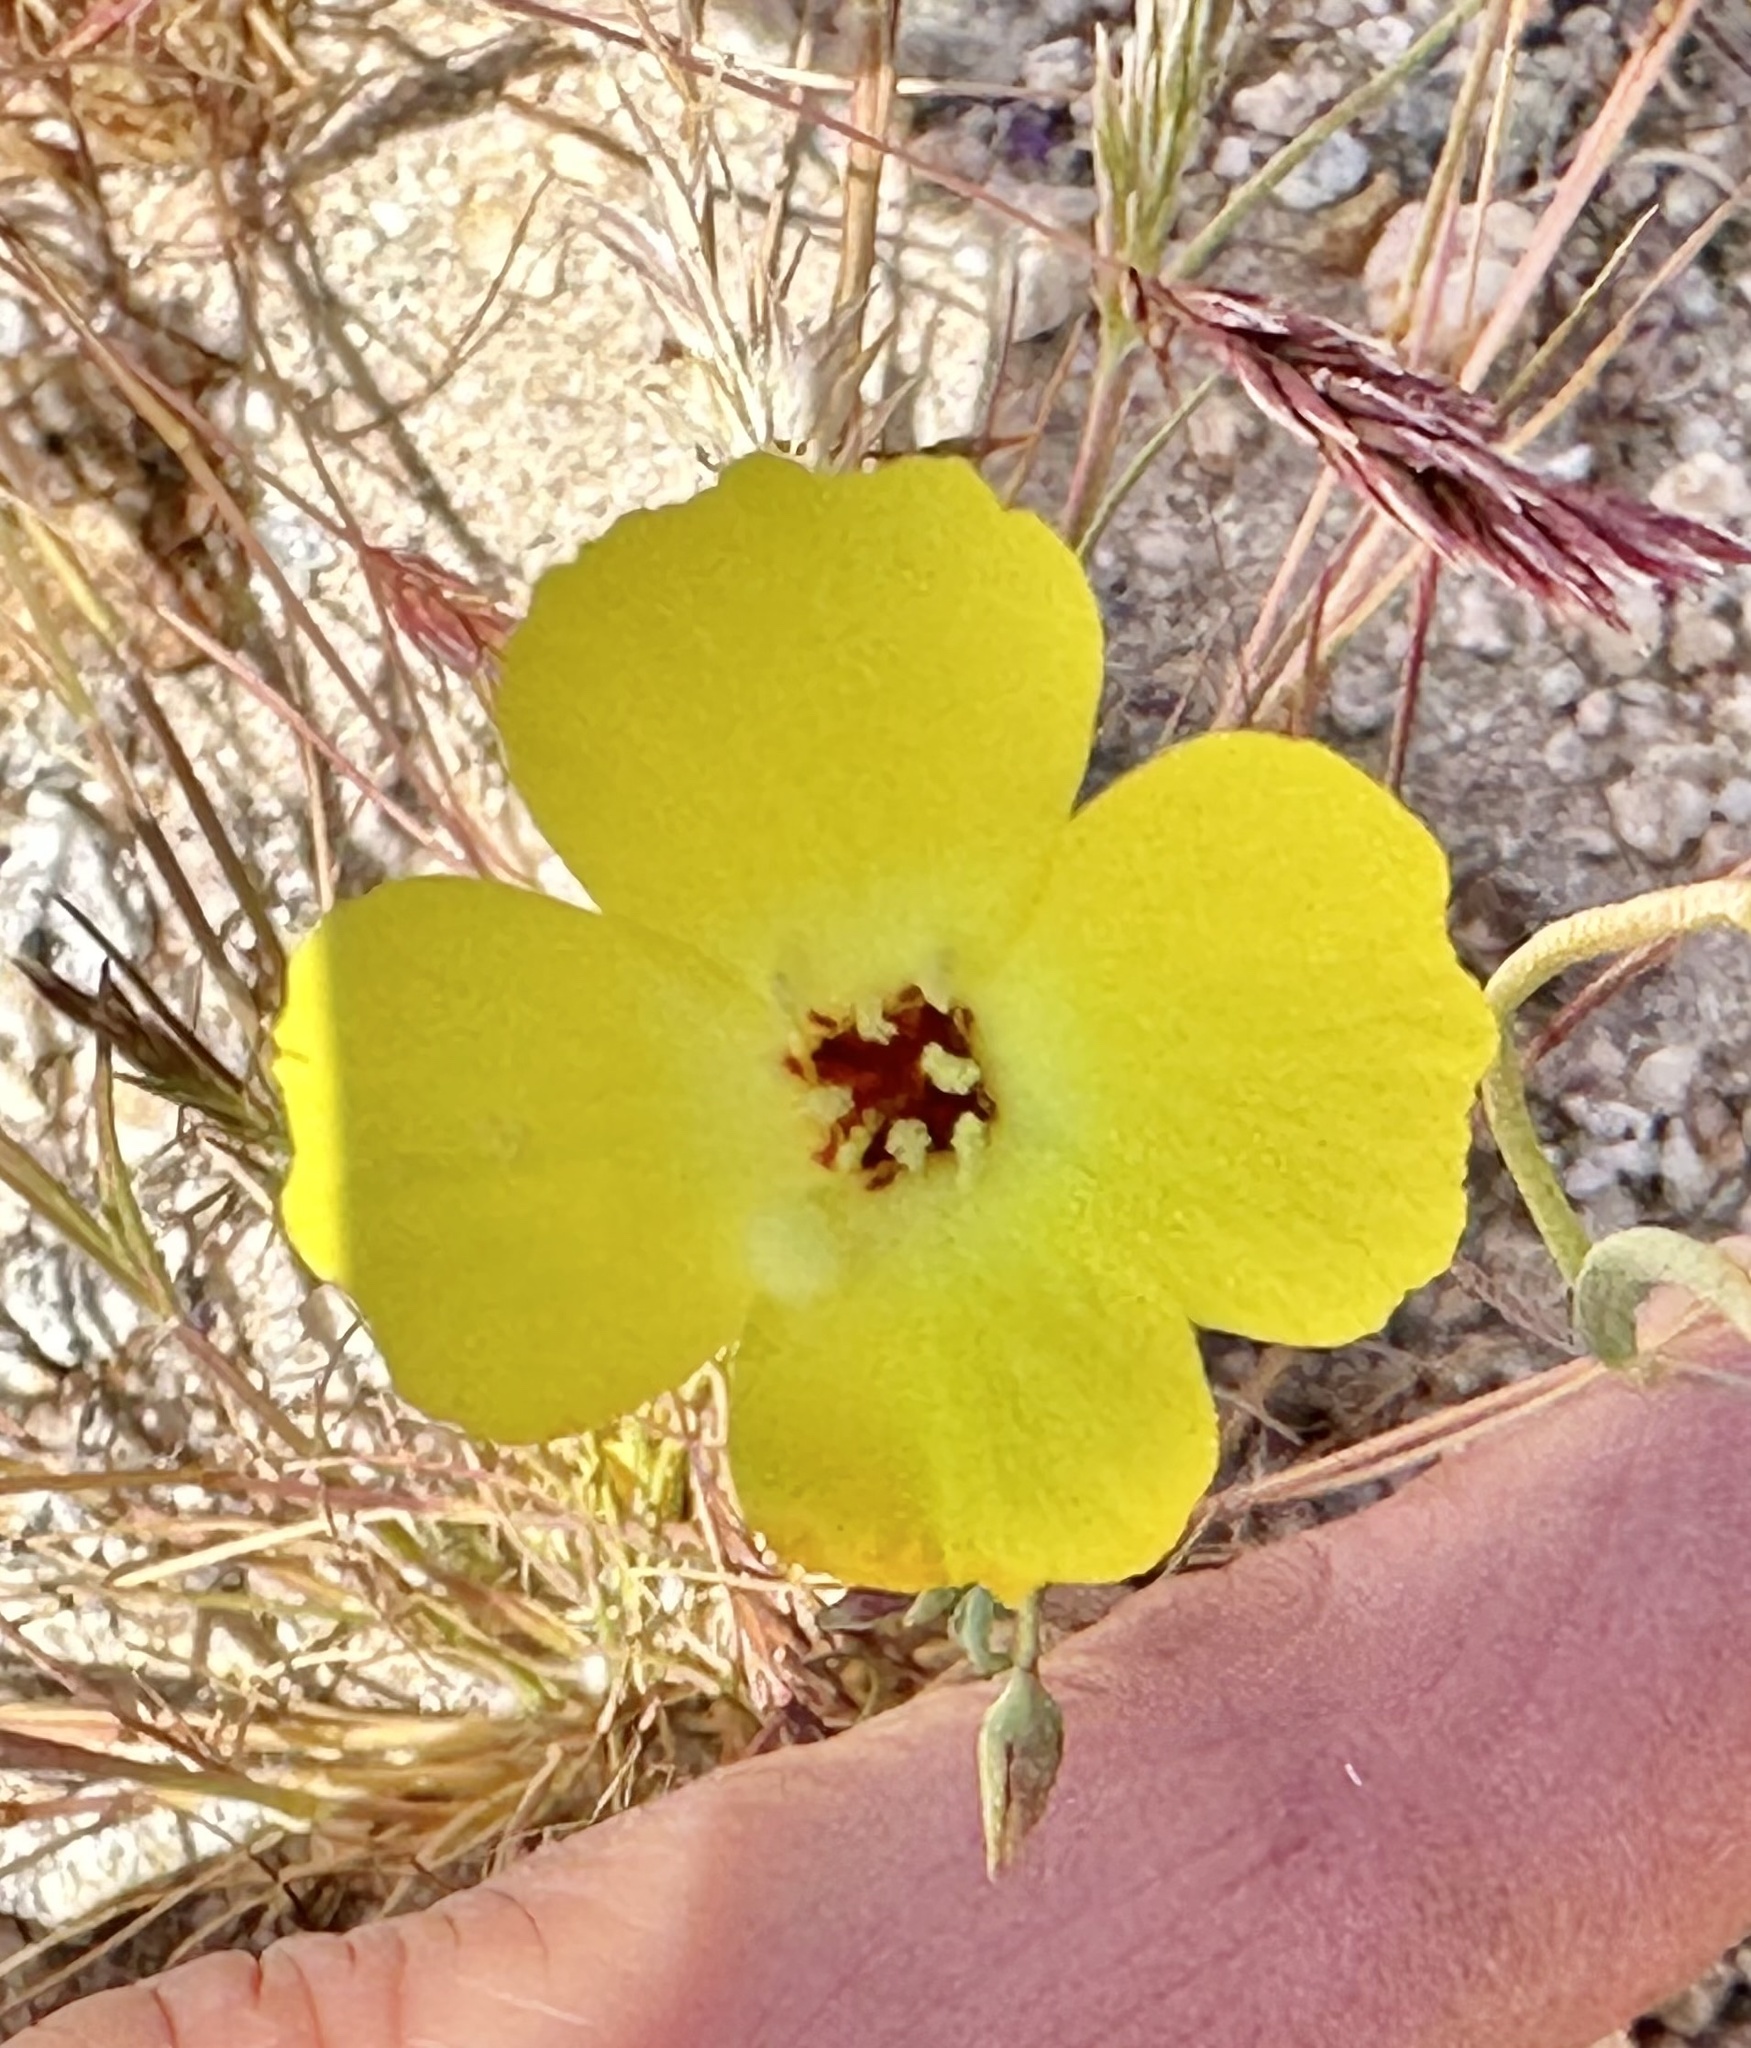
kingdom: Plantae
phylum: Tracheophyta
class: Magnoliopsida
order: Myrtales
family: Onagraceae
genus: Camissonia
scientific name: Camissonia campestris
